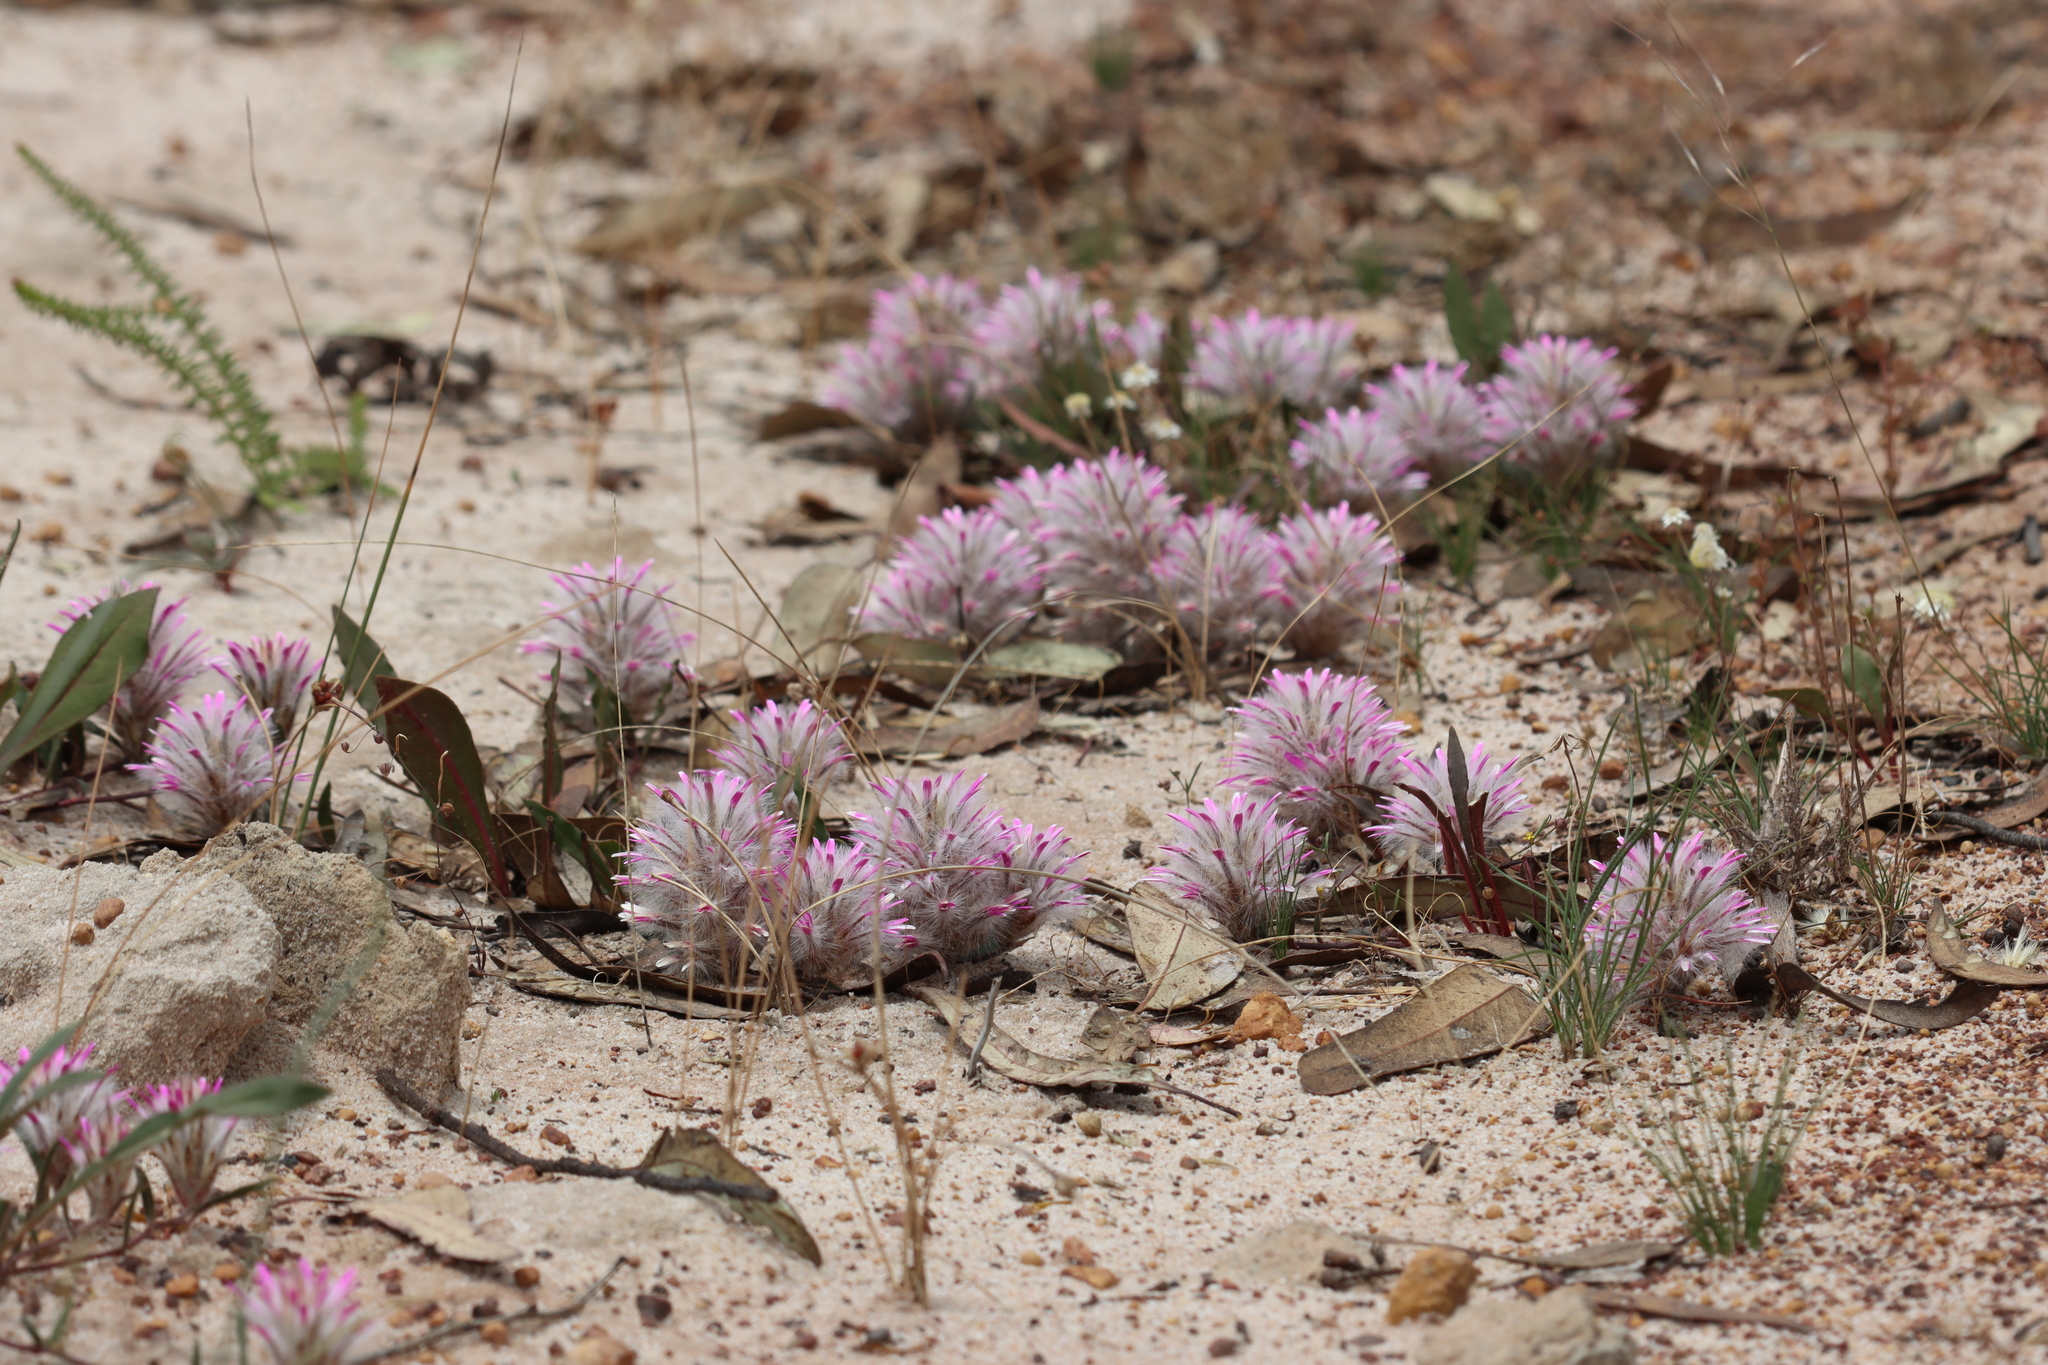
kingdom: Plantae
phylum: Tracheophyta
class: Magnoliopsida
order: Caryophyllales
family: Amaranthaceae
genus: Ptilotus
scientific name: Ptilotus manglesii
